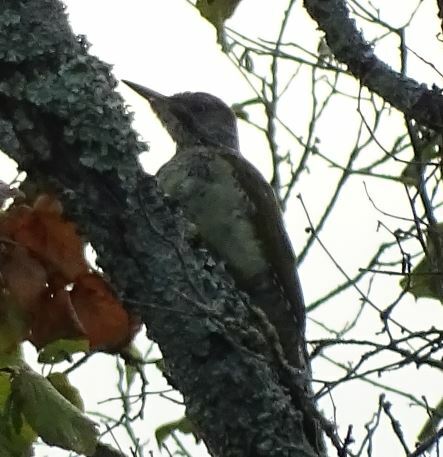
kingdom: Animalia
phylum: Chordata
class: Aves
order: Piciformes
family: Picidae
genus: Picus
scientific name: Picus viridis
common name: European green woodpecker
